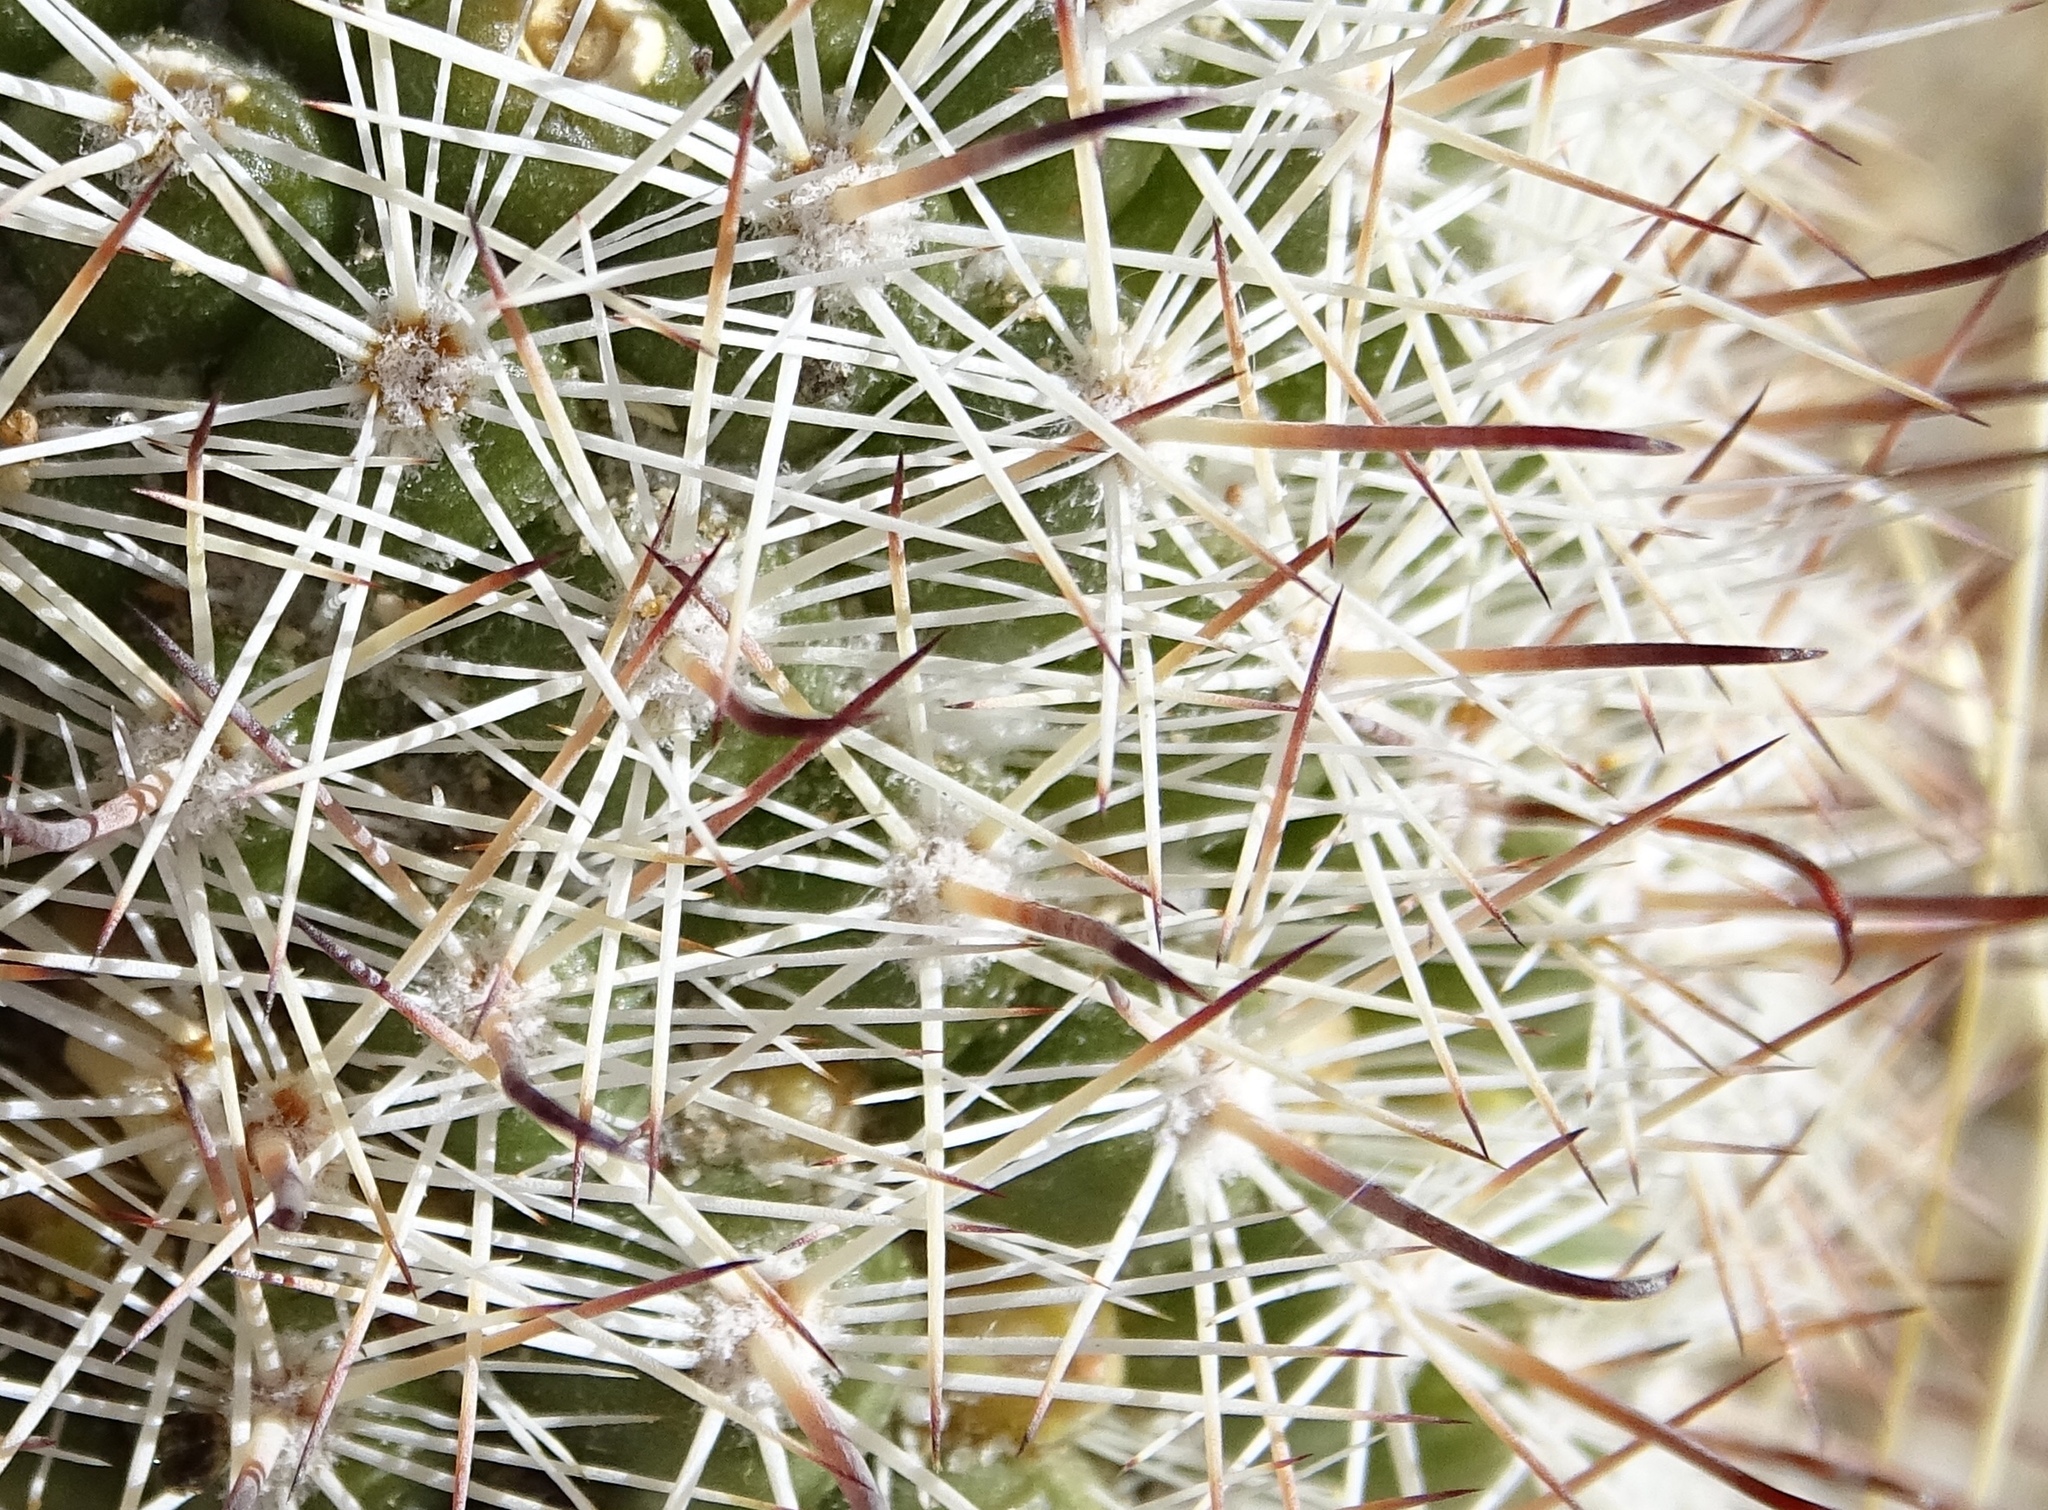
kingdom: Plantae
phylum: Tracheophyta
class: Magnoliopsida
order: Caryophyllales
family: Cactaceae
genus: Cochemiea
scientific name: Cochemiea dioica
